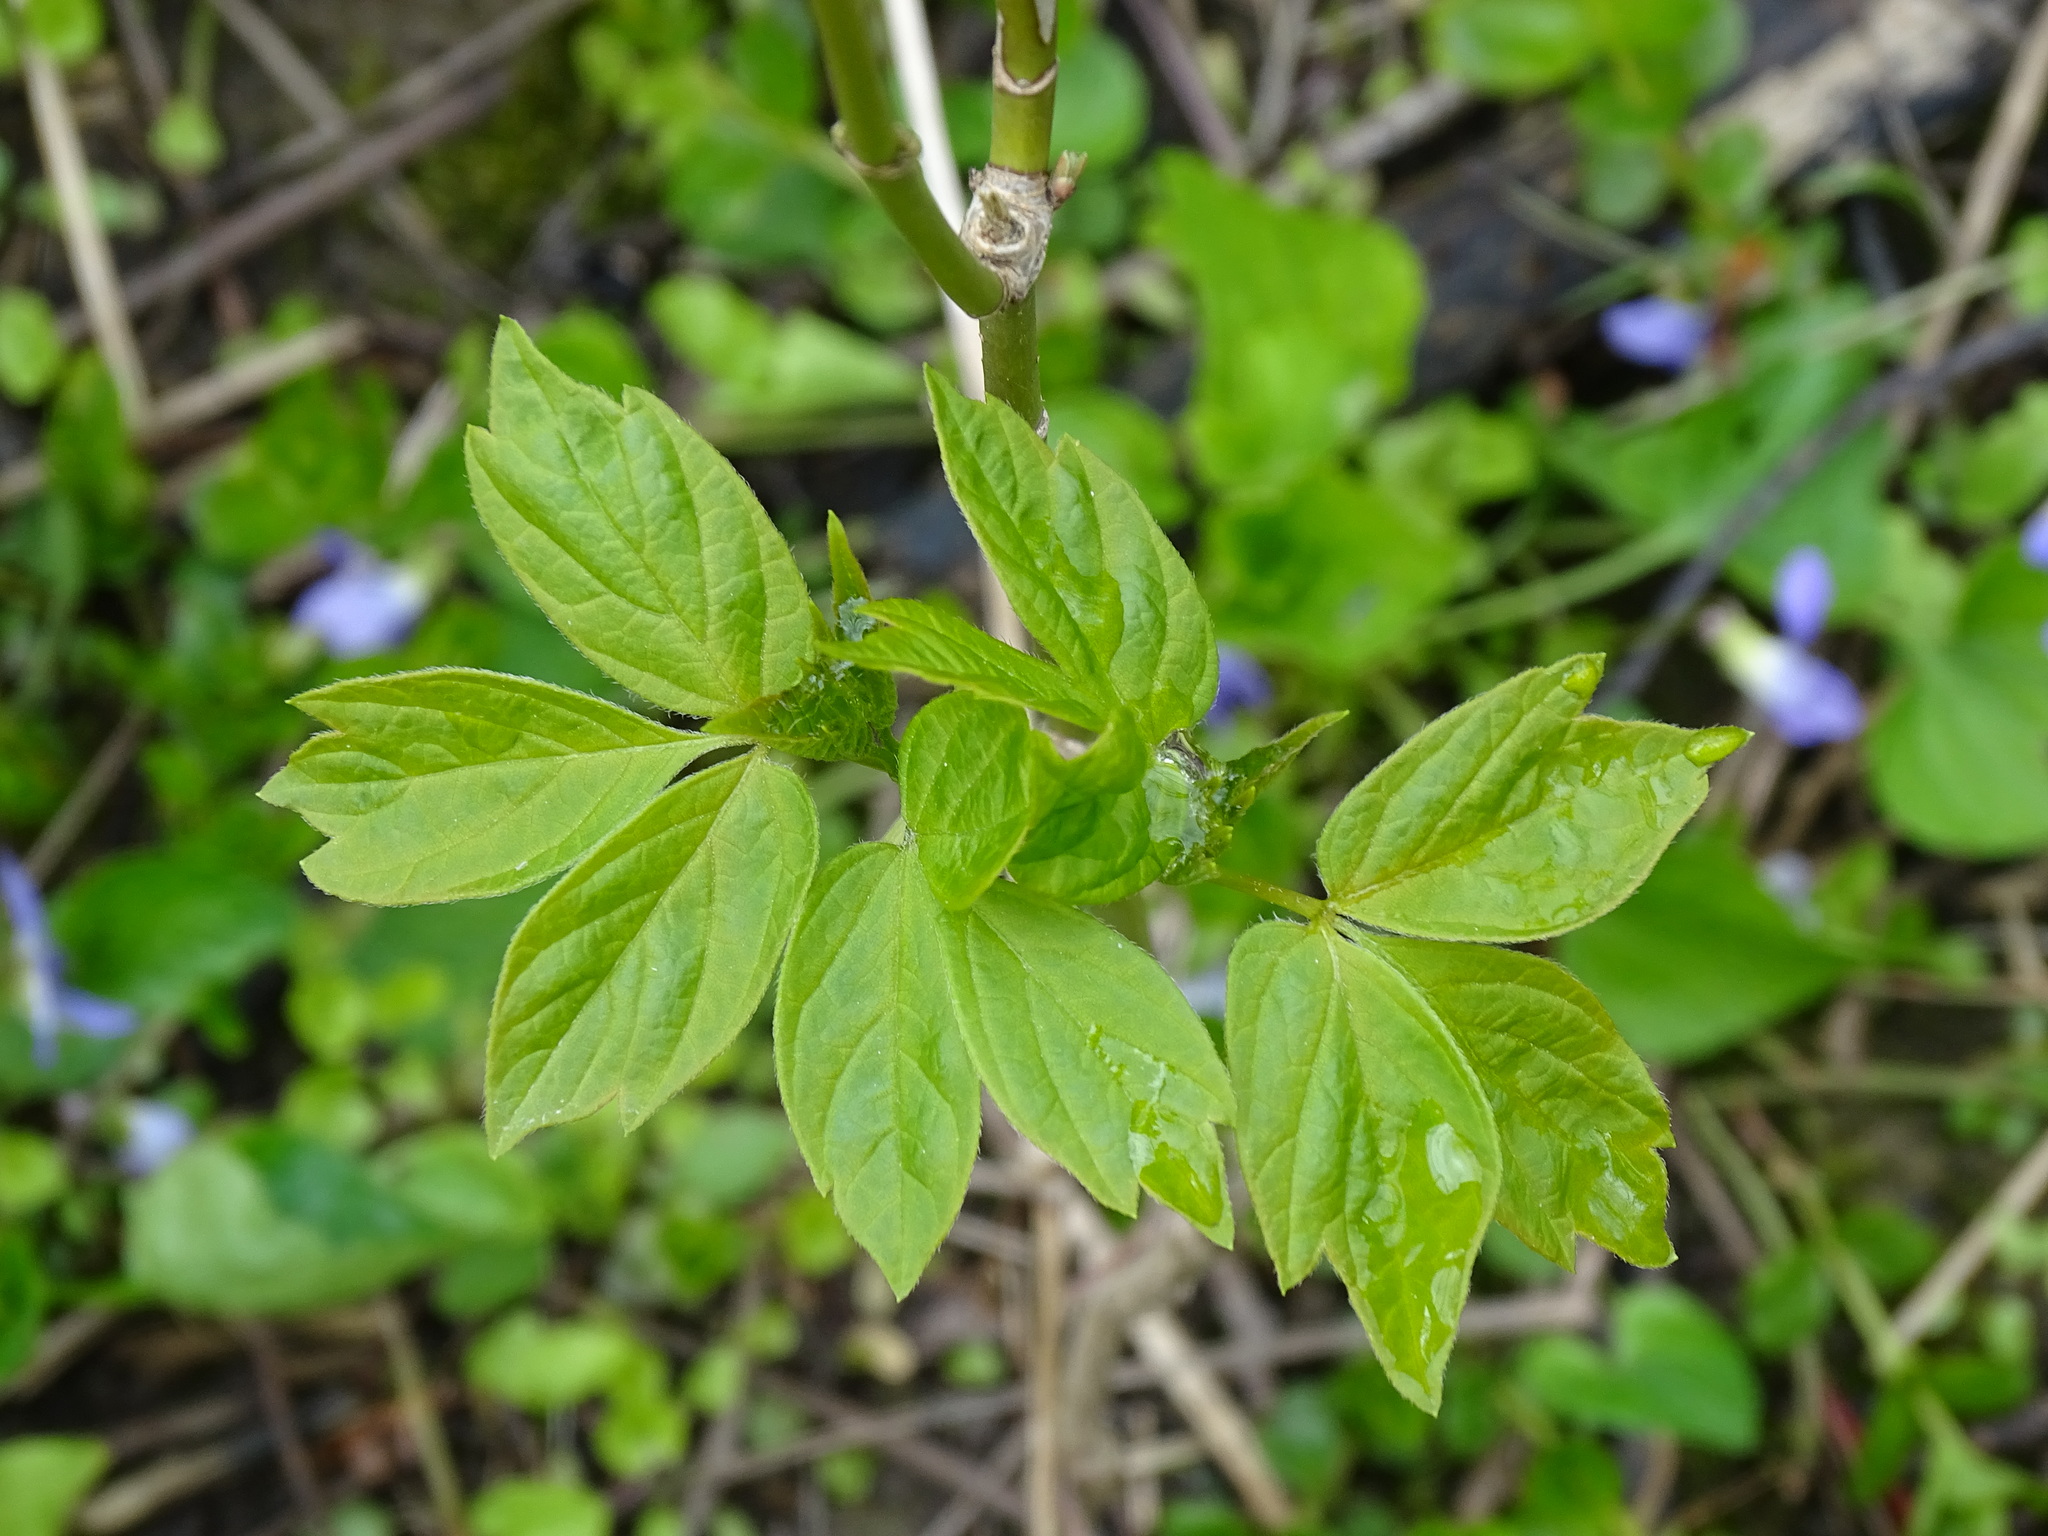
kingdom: Plantae
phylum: Tracheophyta
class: Magnoliopsida
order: Sapindales
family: Sapindaceae
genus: Acer
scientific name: Acer negundo
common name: Ashleaf maple
